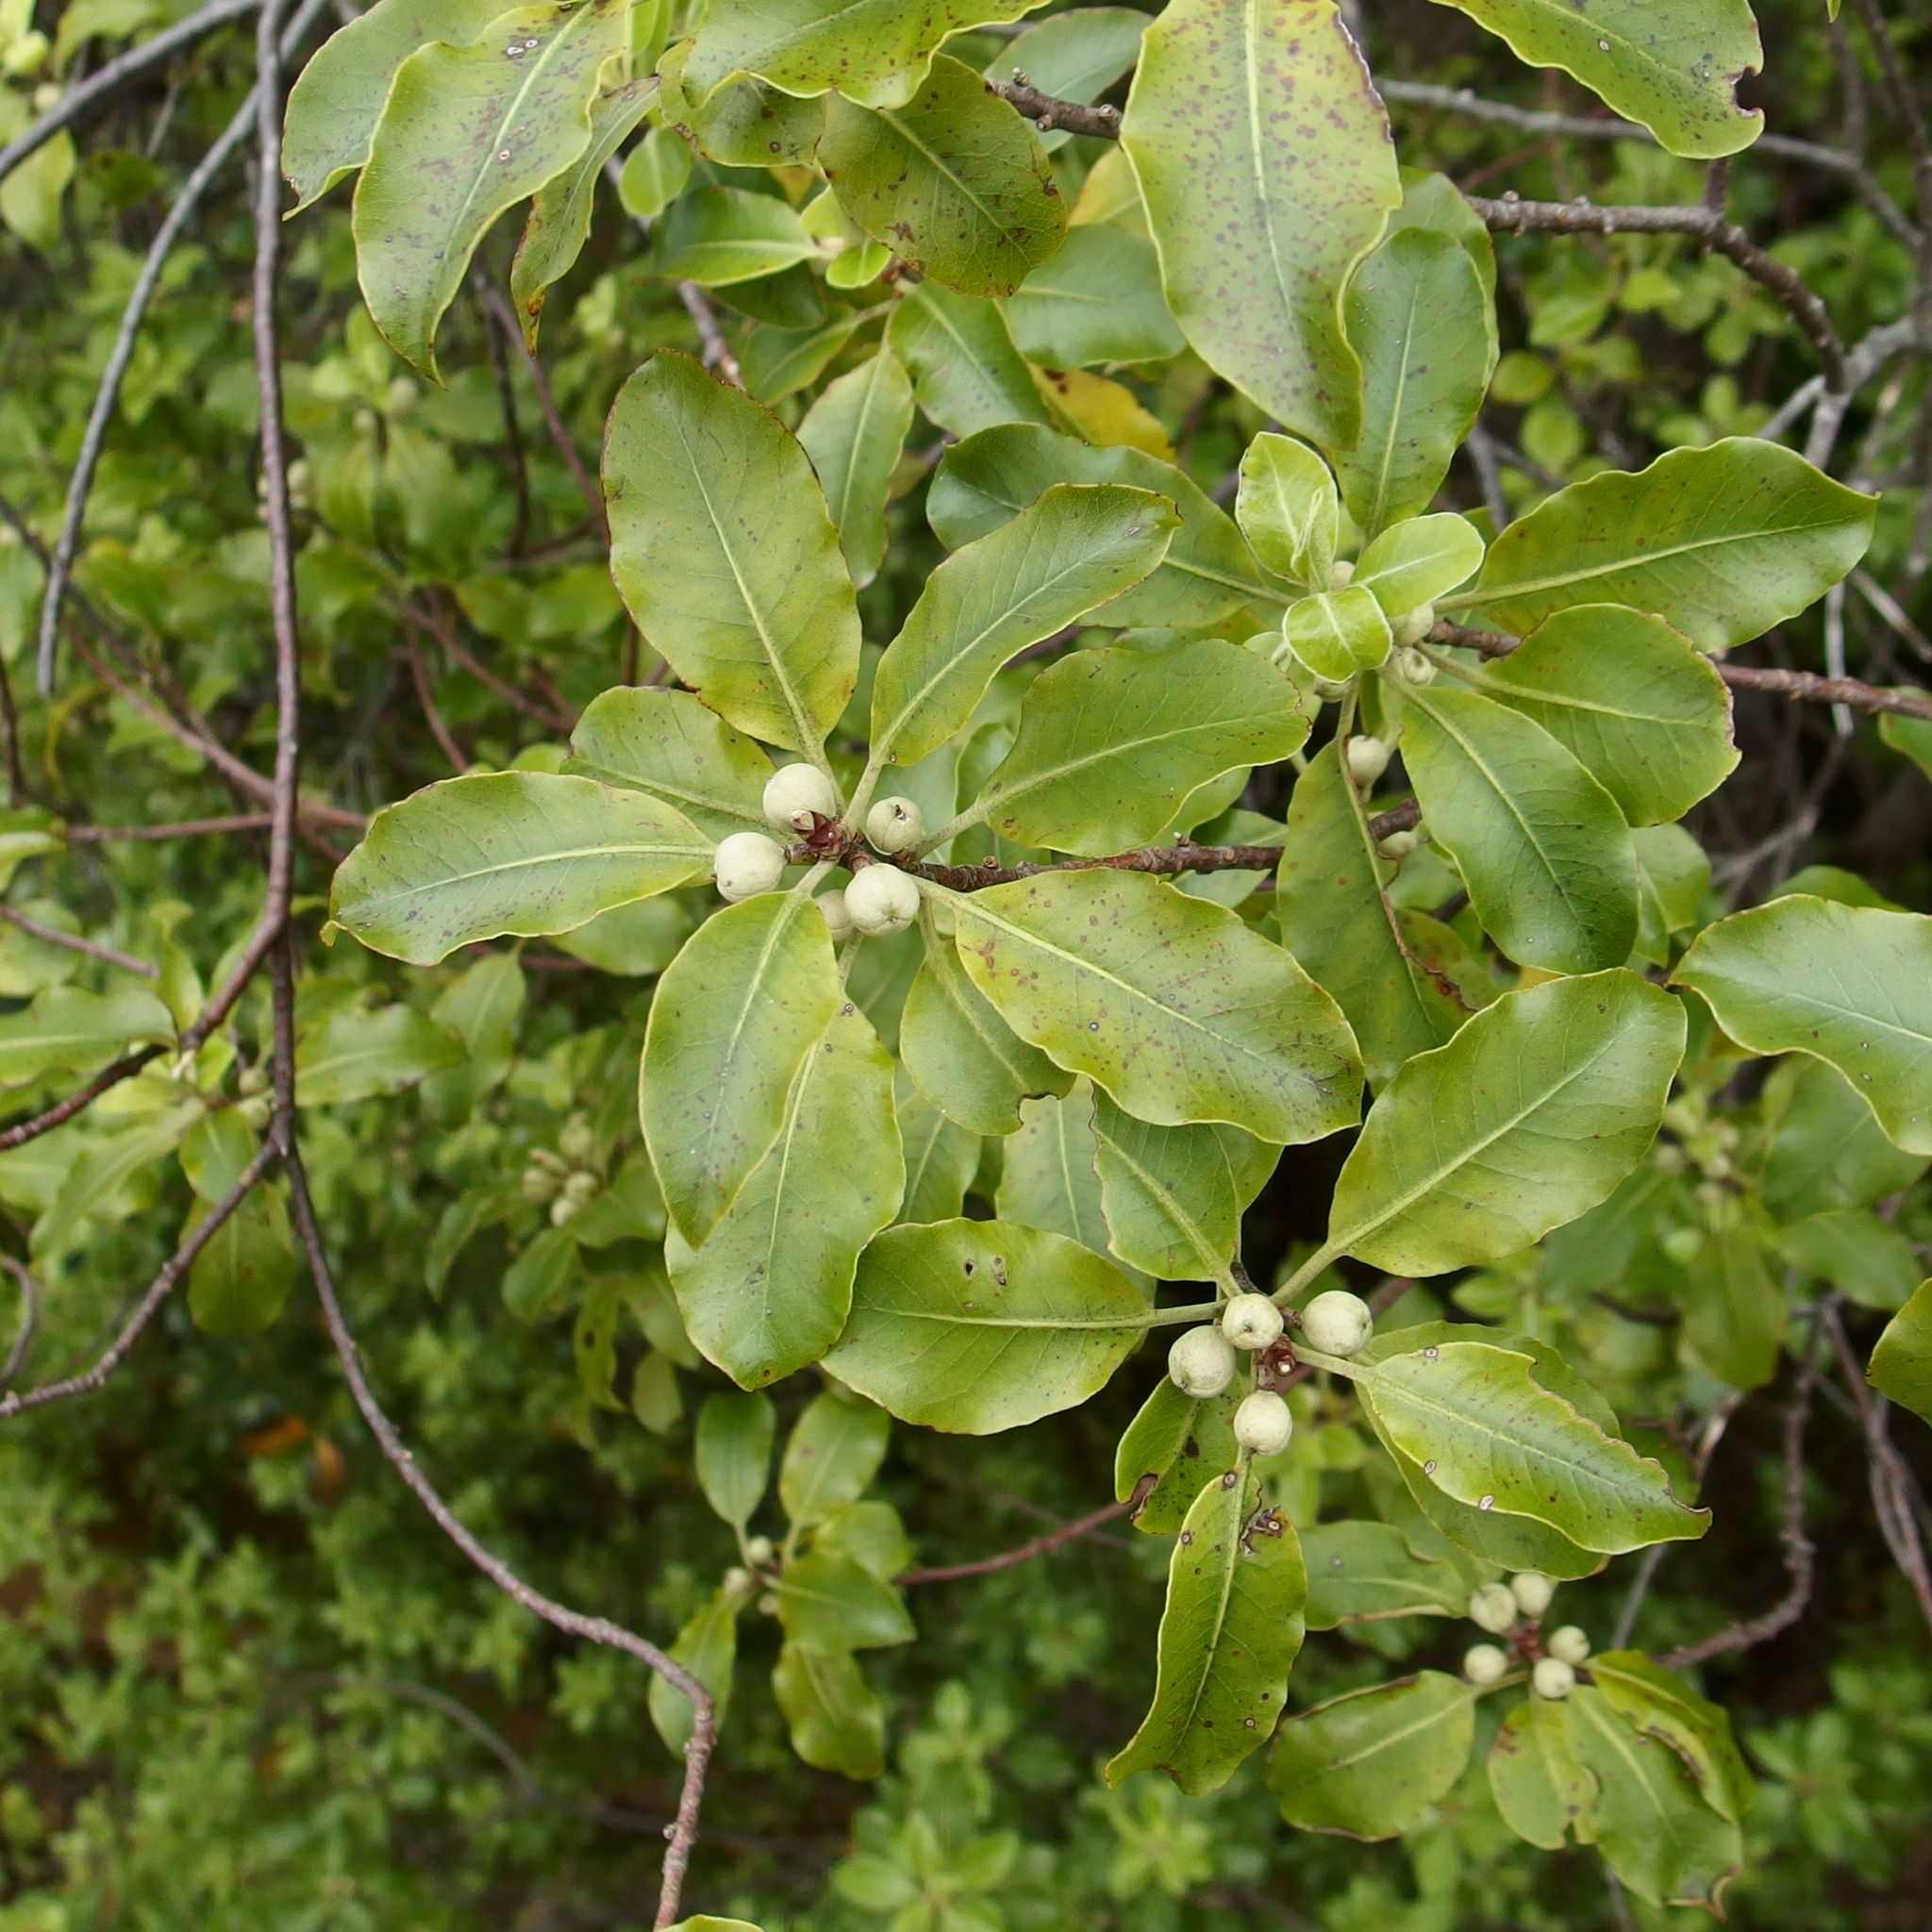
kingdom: Plantae
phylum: Tracheophyta
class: Magnoliopsida
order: Apiales
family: Pittosporaceae
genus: Pittosporum
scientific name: Pittosporum tenuifolium
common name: Kohuhu
